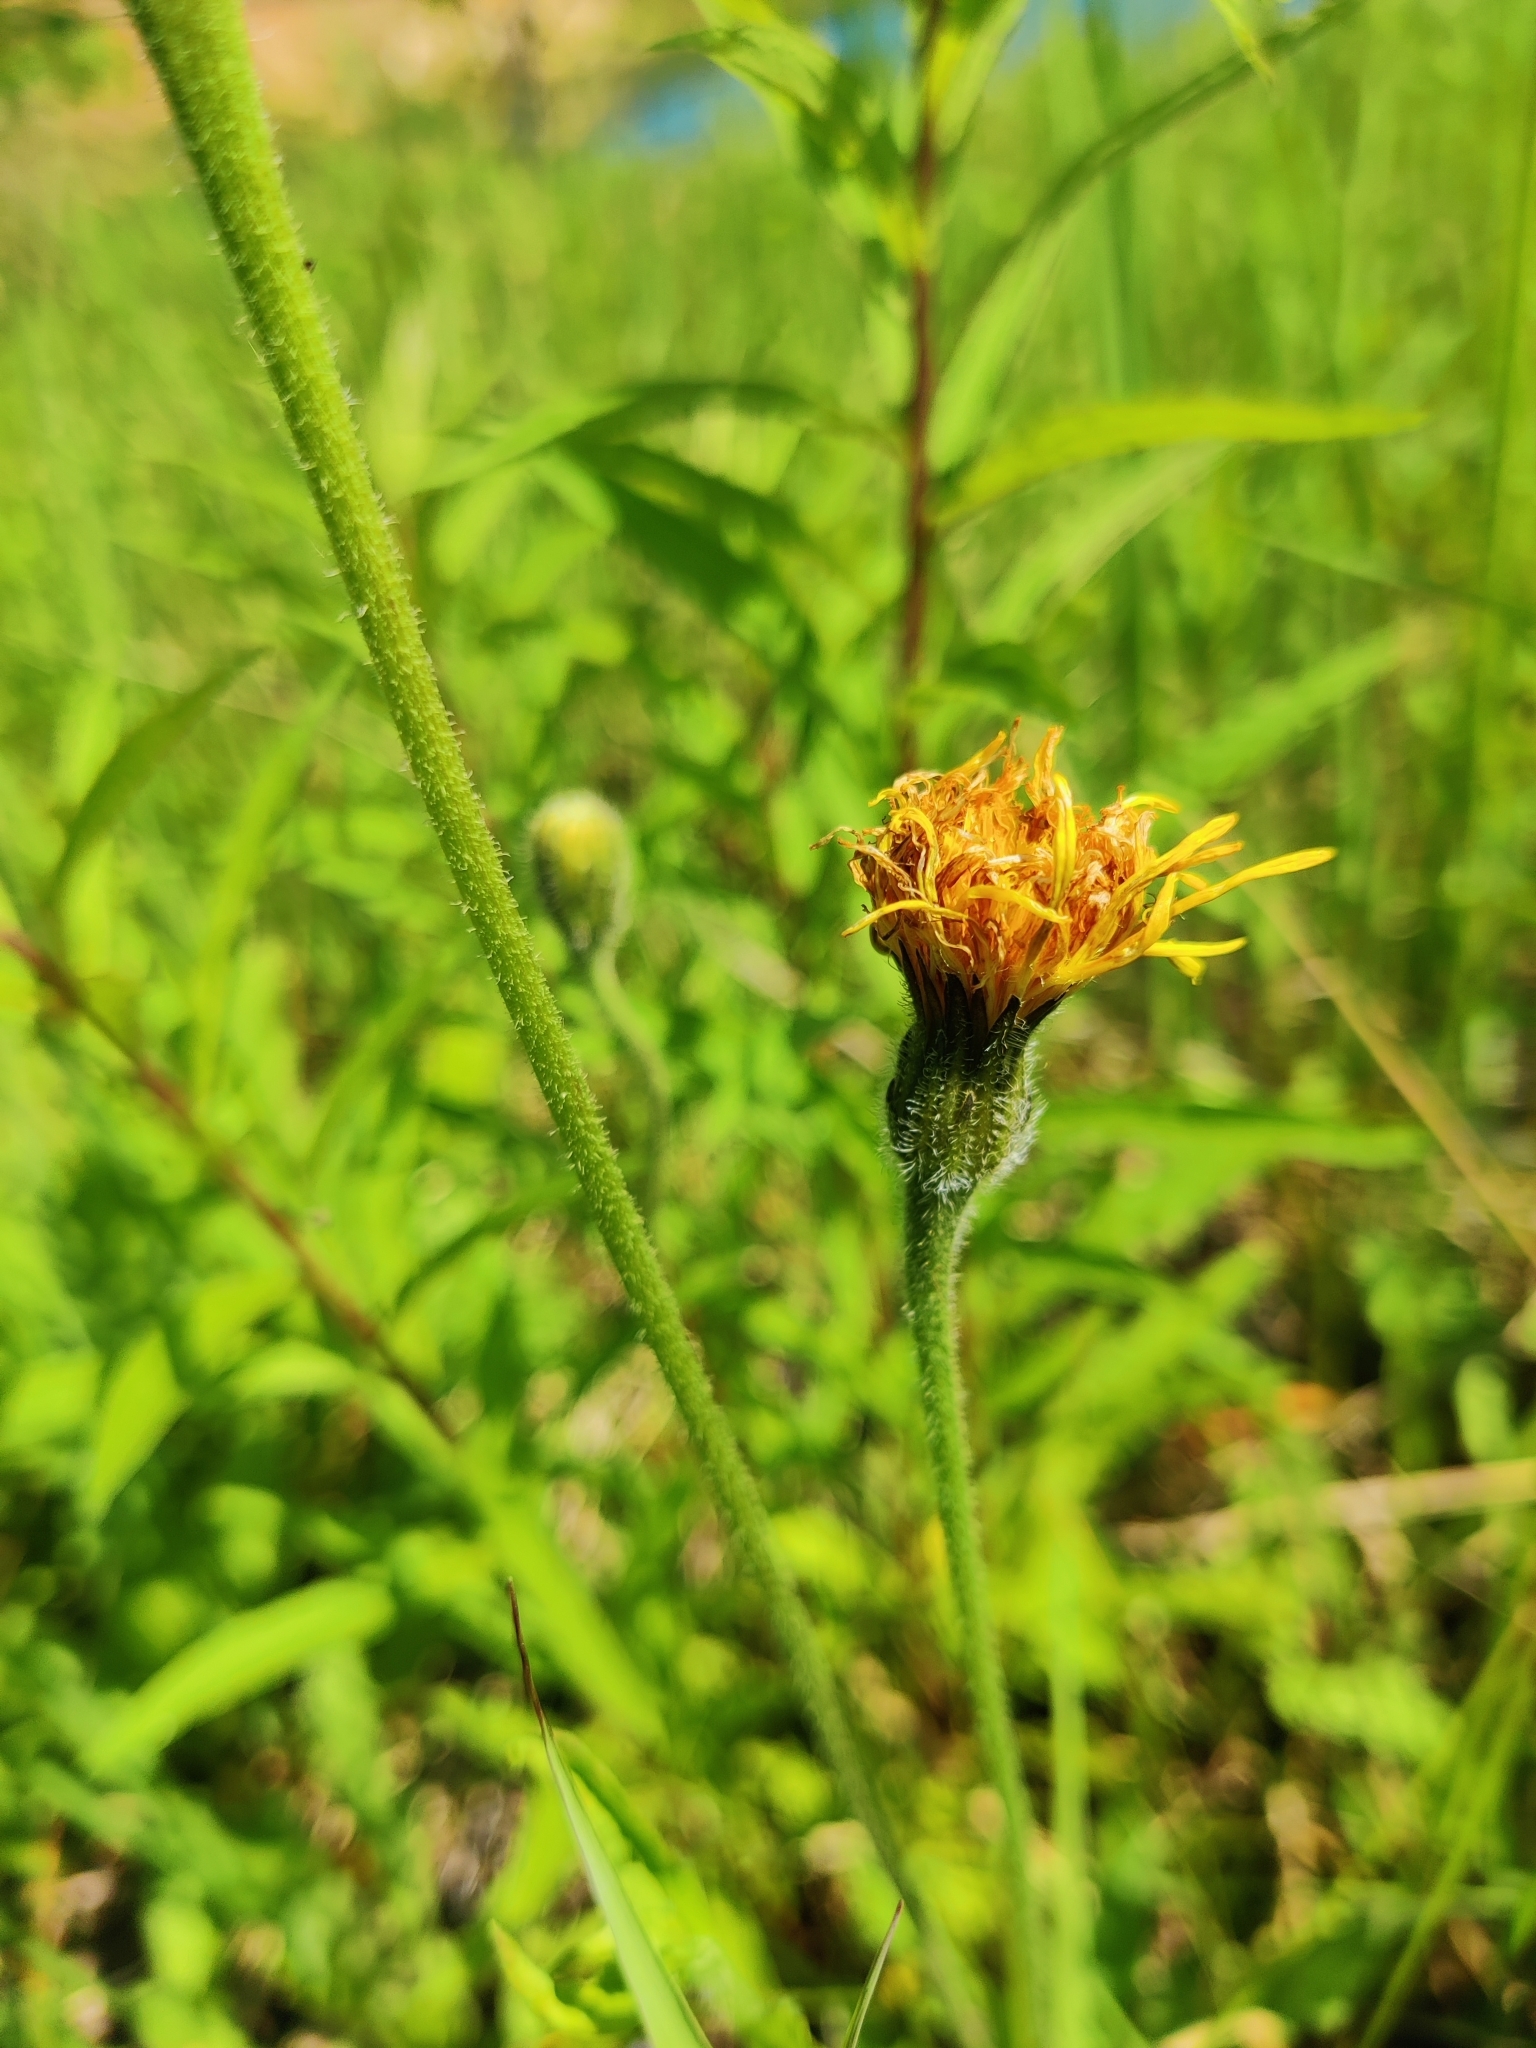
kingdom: Plantae
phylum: Tracheophyta
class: Magnoliopsida
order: Asterales
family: Asteraceae
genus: Leontodon
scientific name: Leontodon hispidus
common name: Rough hawkbit
